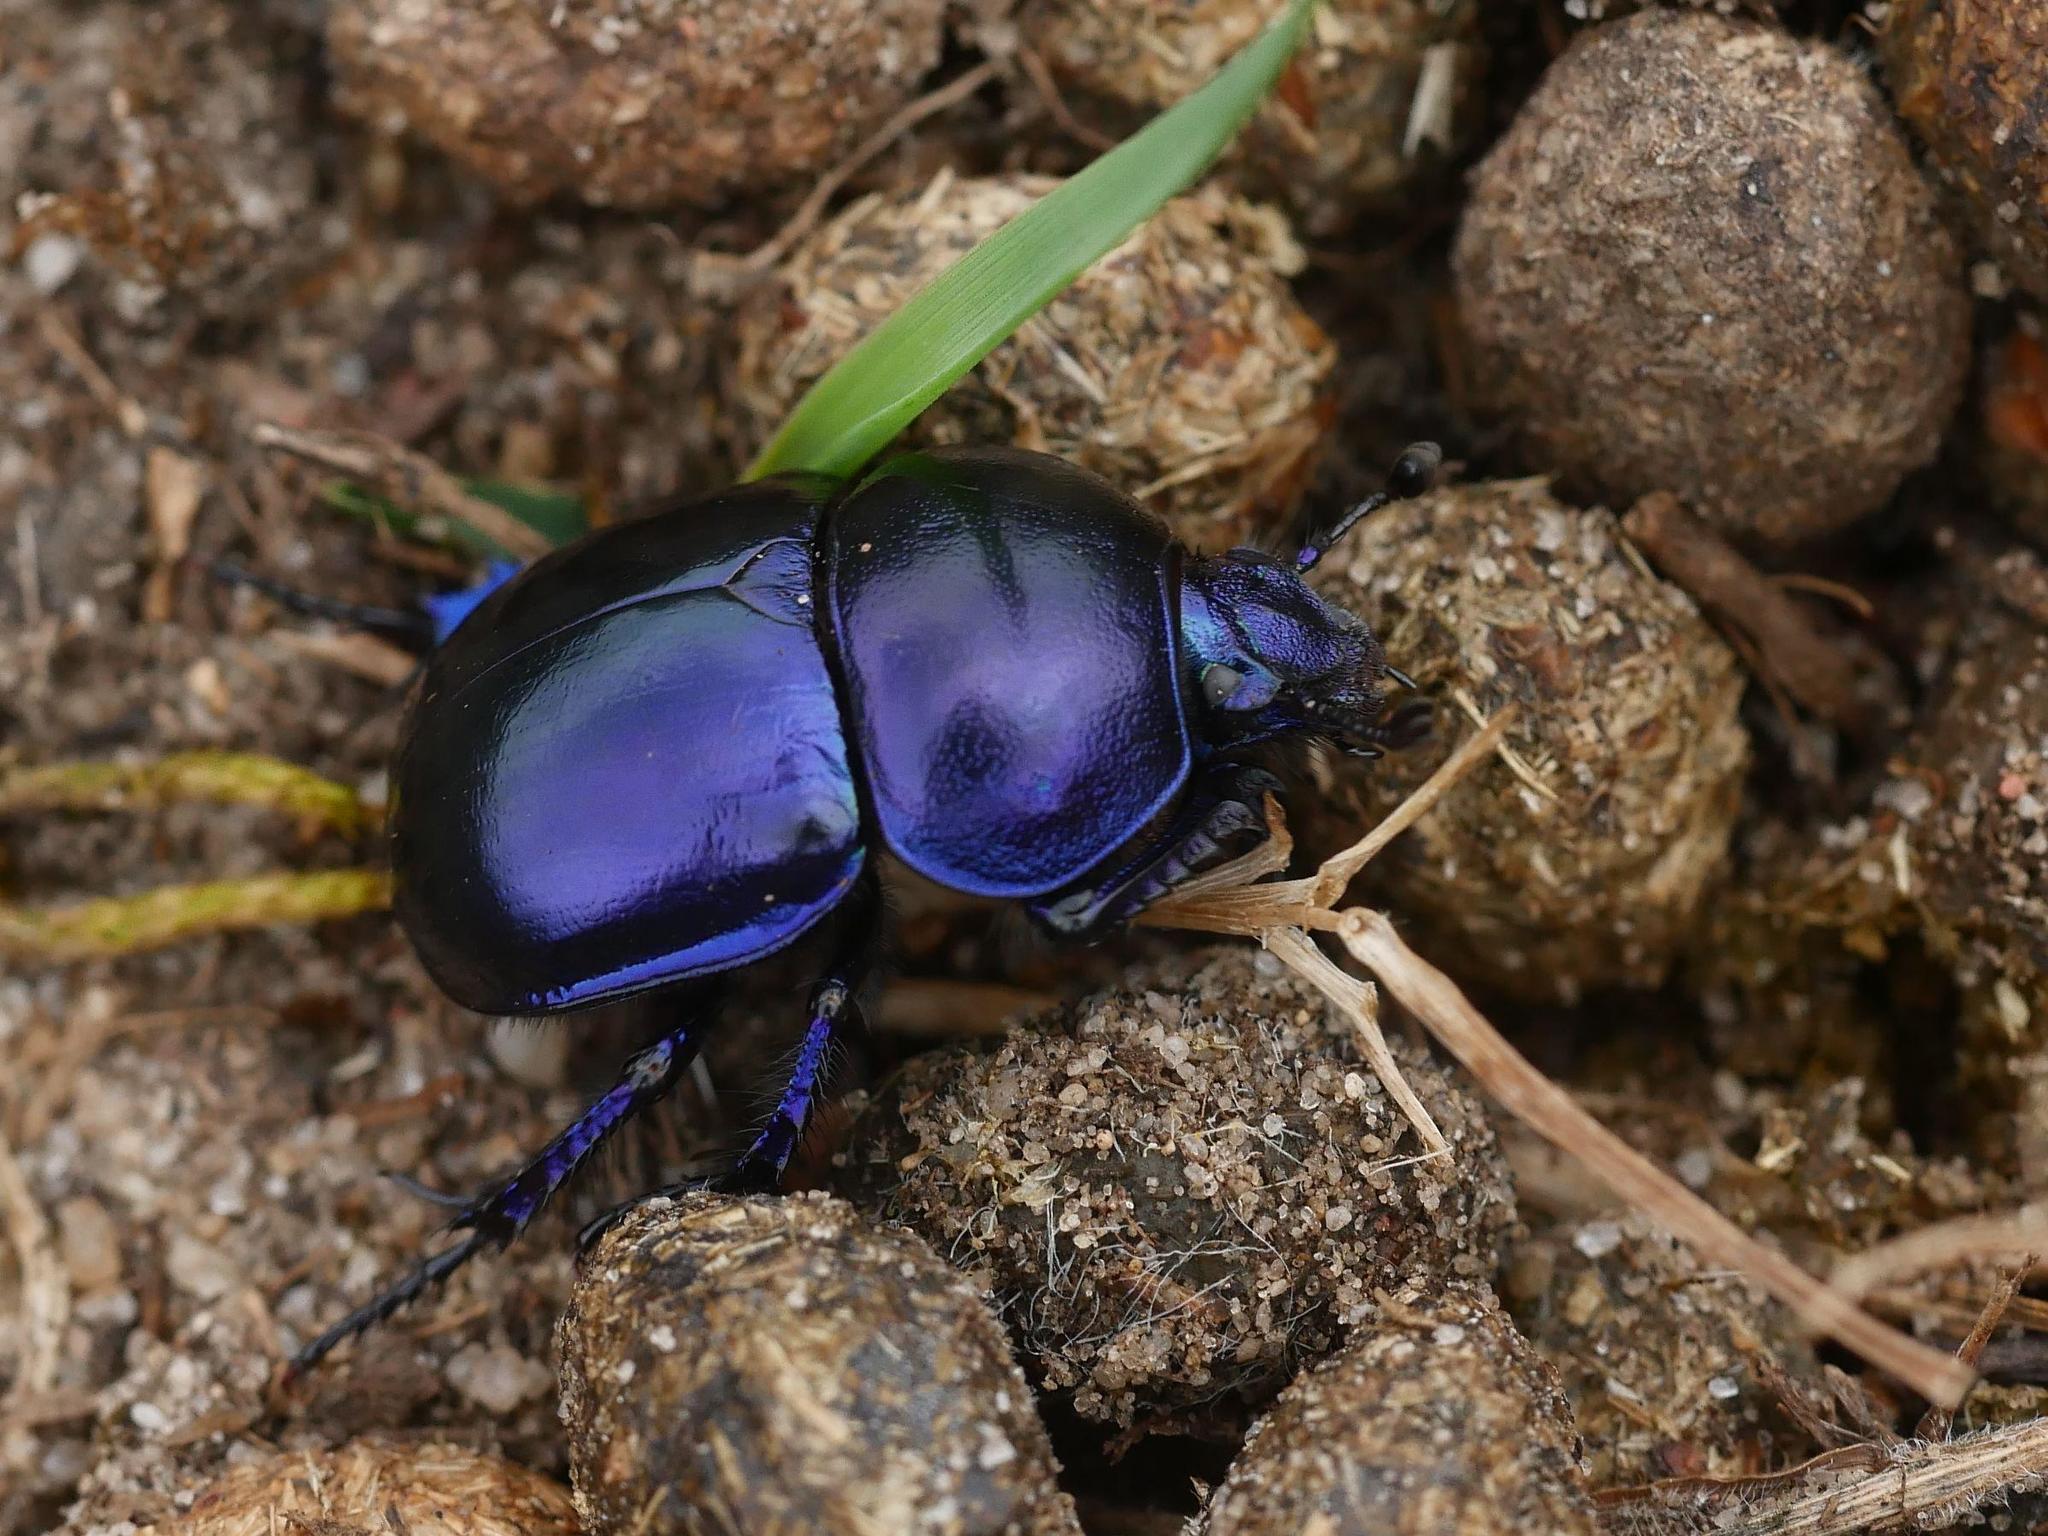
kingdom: Animalia
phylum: Arthropoda
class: Insecta
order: Coleoptera
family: Geotrupidae
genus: Trypocopris
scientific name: Trypocopris vernalis
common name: Spring dumbledor
